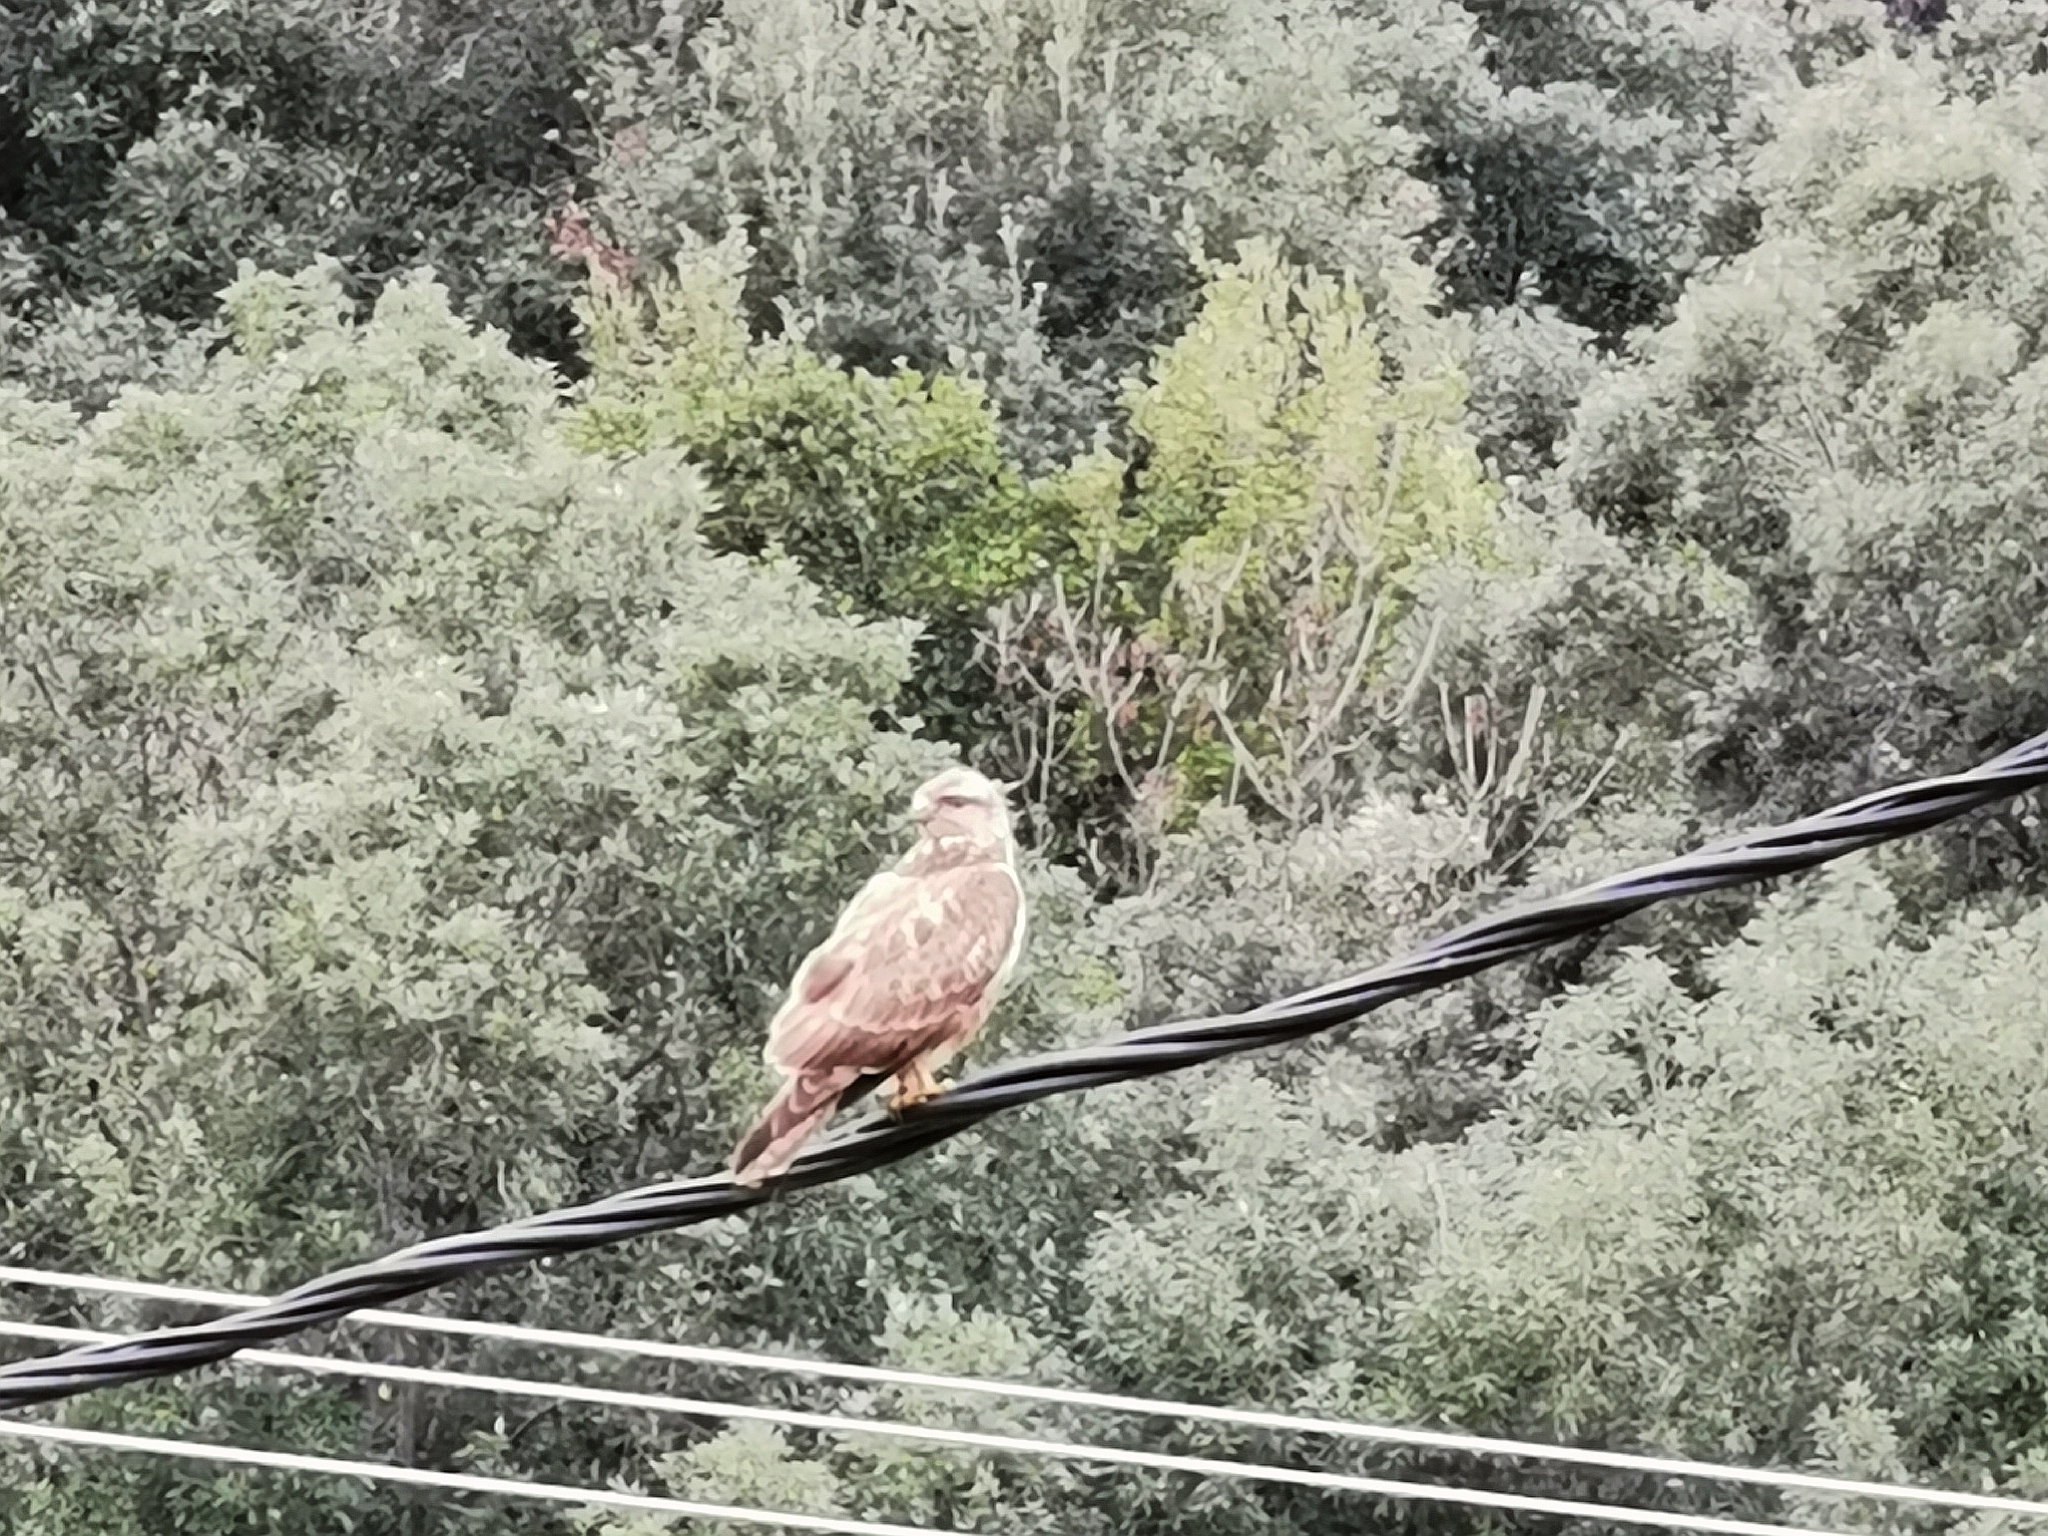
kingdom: Animalia
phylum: Chordata
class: Aves
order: Accipitriformes
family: Accipitridae
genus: Buteo
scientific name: Buteo buteo
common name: Common buzzard
